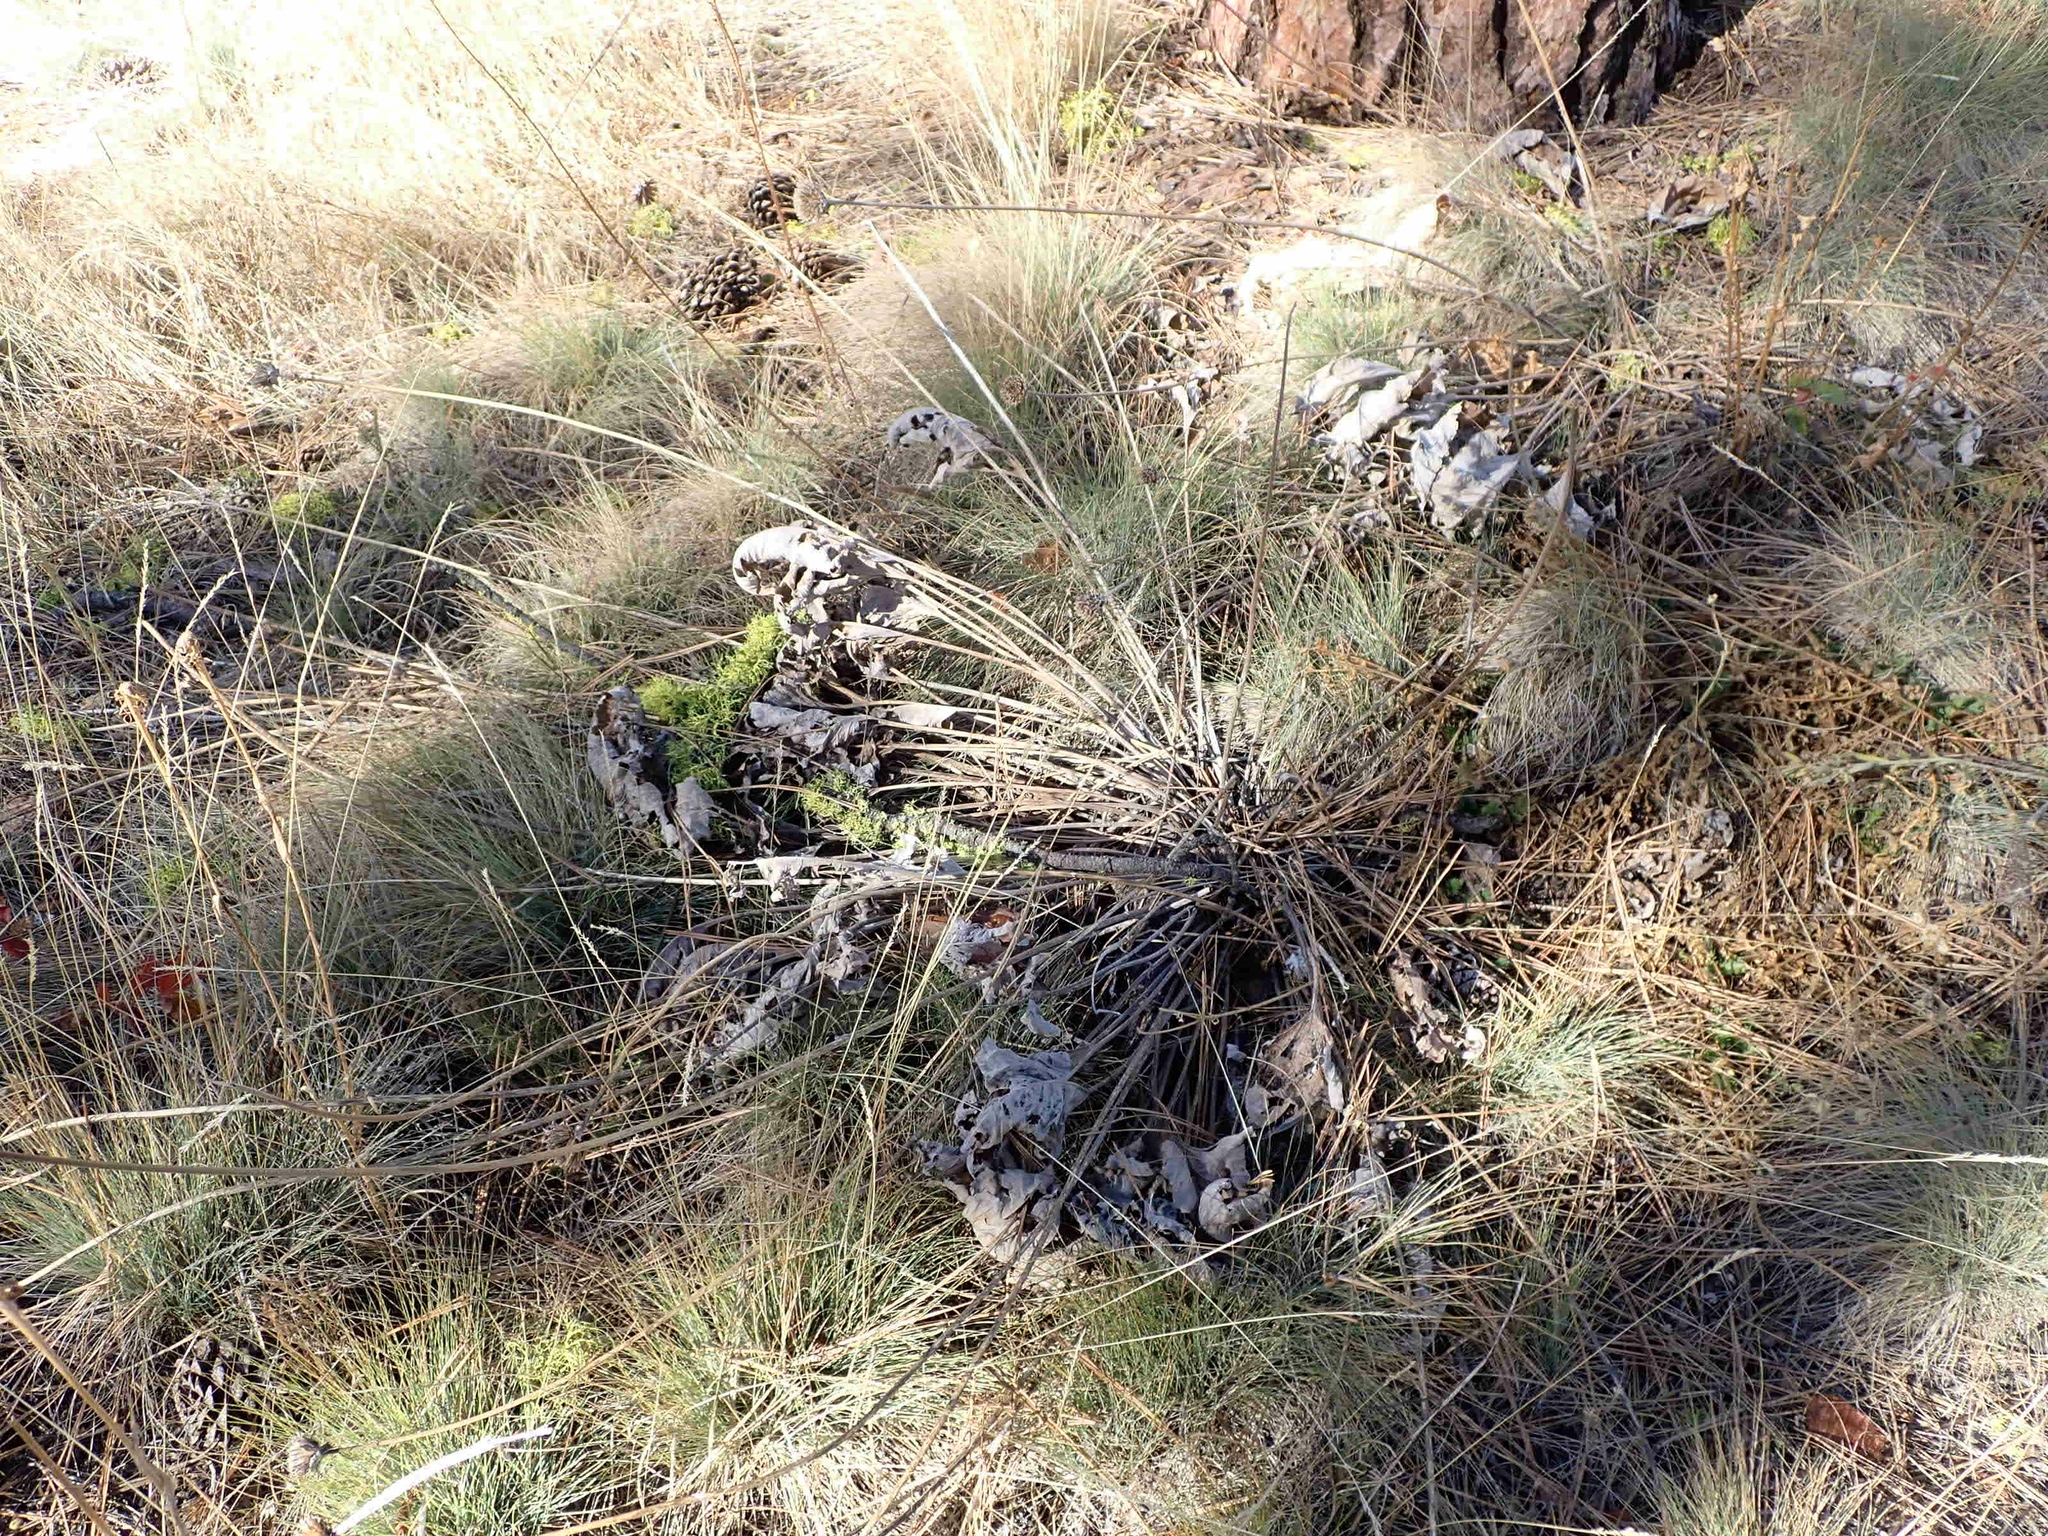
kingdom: Plantae
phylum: Tracheophyta
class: Magnoliopsida
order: Asterales
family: Asteraceae
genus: Wyethia
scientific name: Wyethia sagittata
